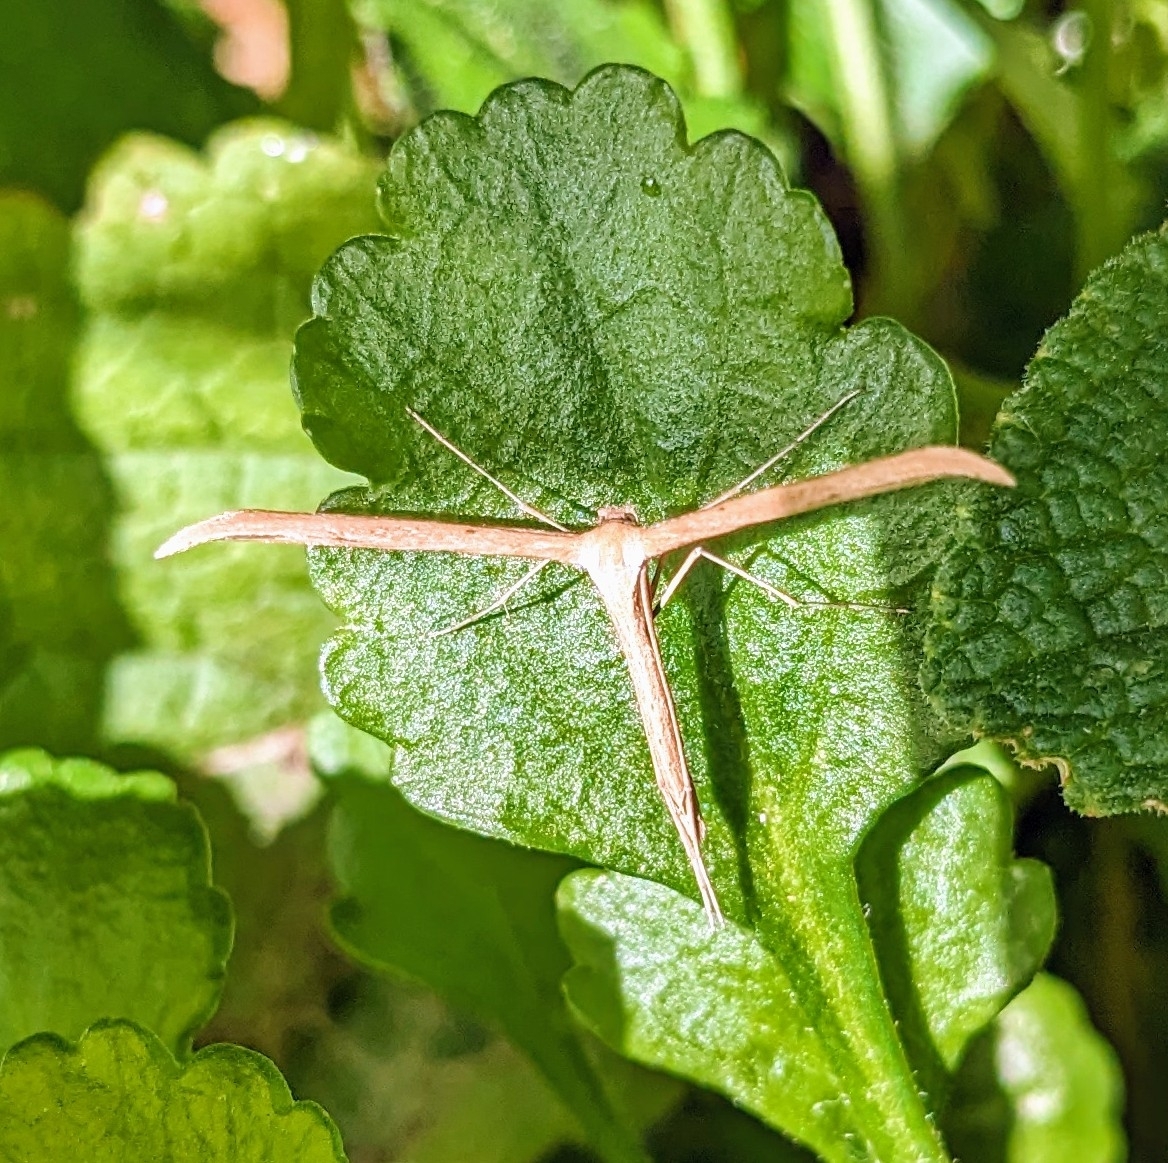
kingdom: Animalia
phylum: Arthropoda
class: Insecta
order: Lepidoptera
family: Pterophoridae
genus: Emmelina
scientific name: Emmelina monodactyla
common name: Common plume
